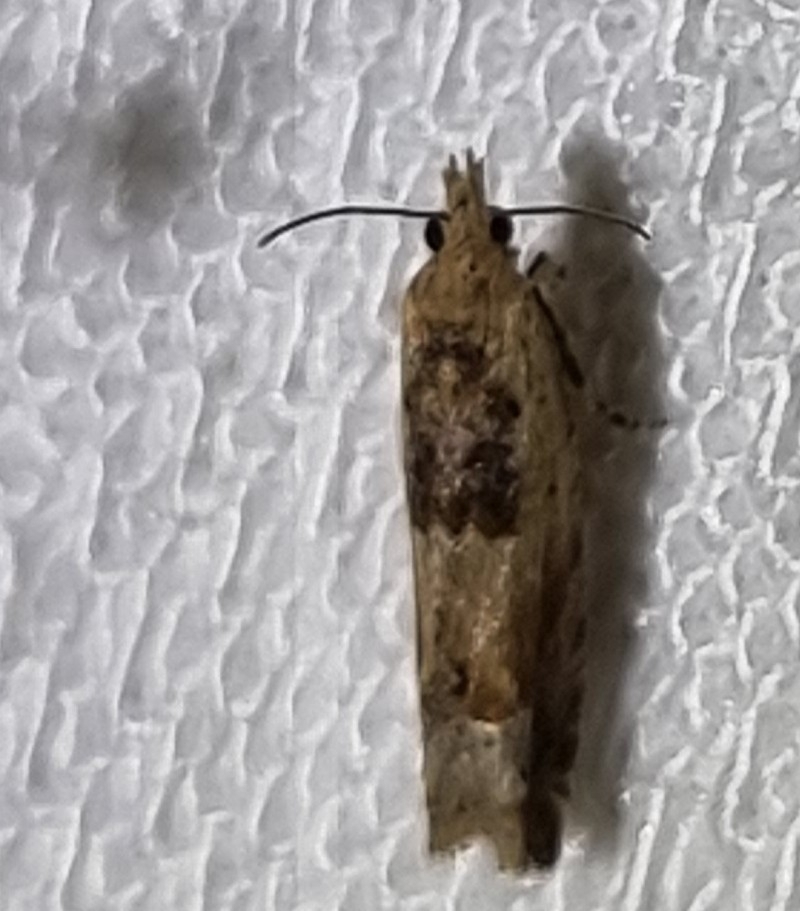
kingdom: Animalia
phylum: Arthropoda
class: Insecta
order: Lepidoptera
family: Tortricidae
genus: Crocidosema
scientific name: Crocidosema plebejana
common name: Southern bell
